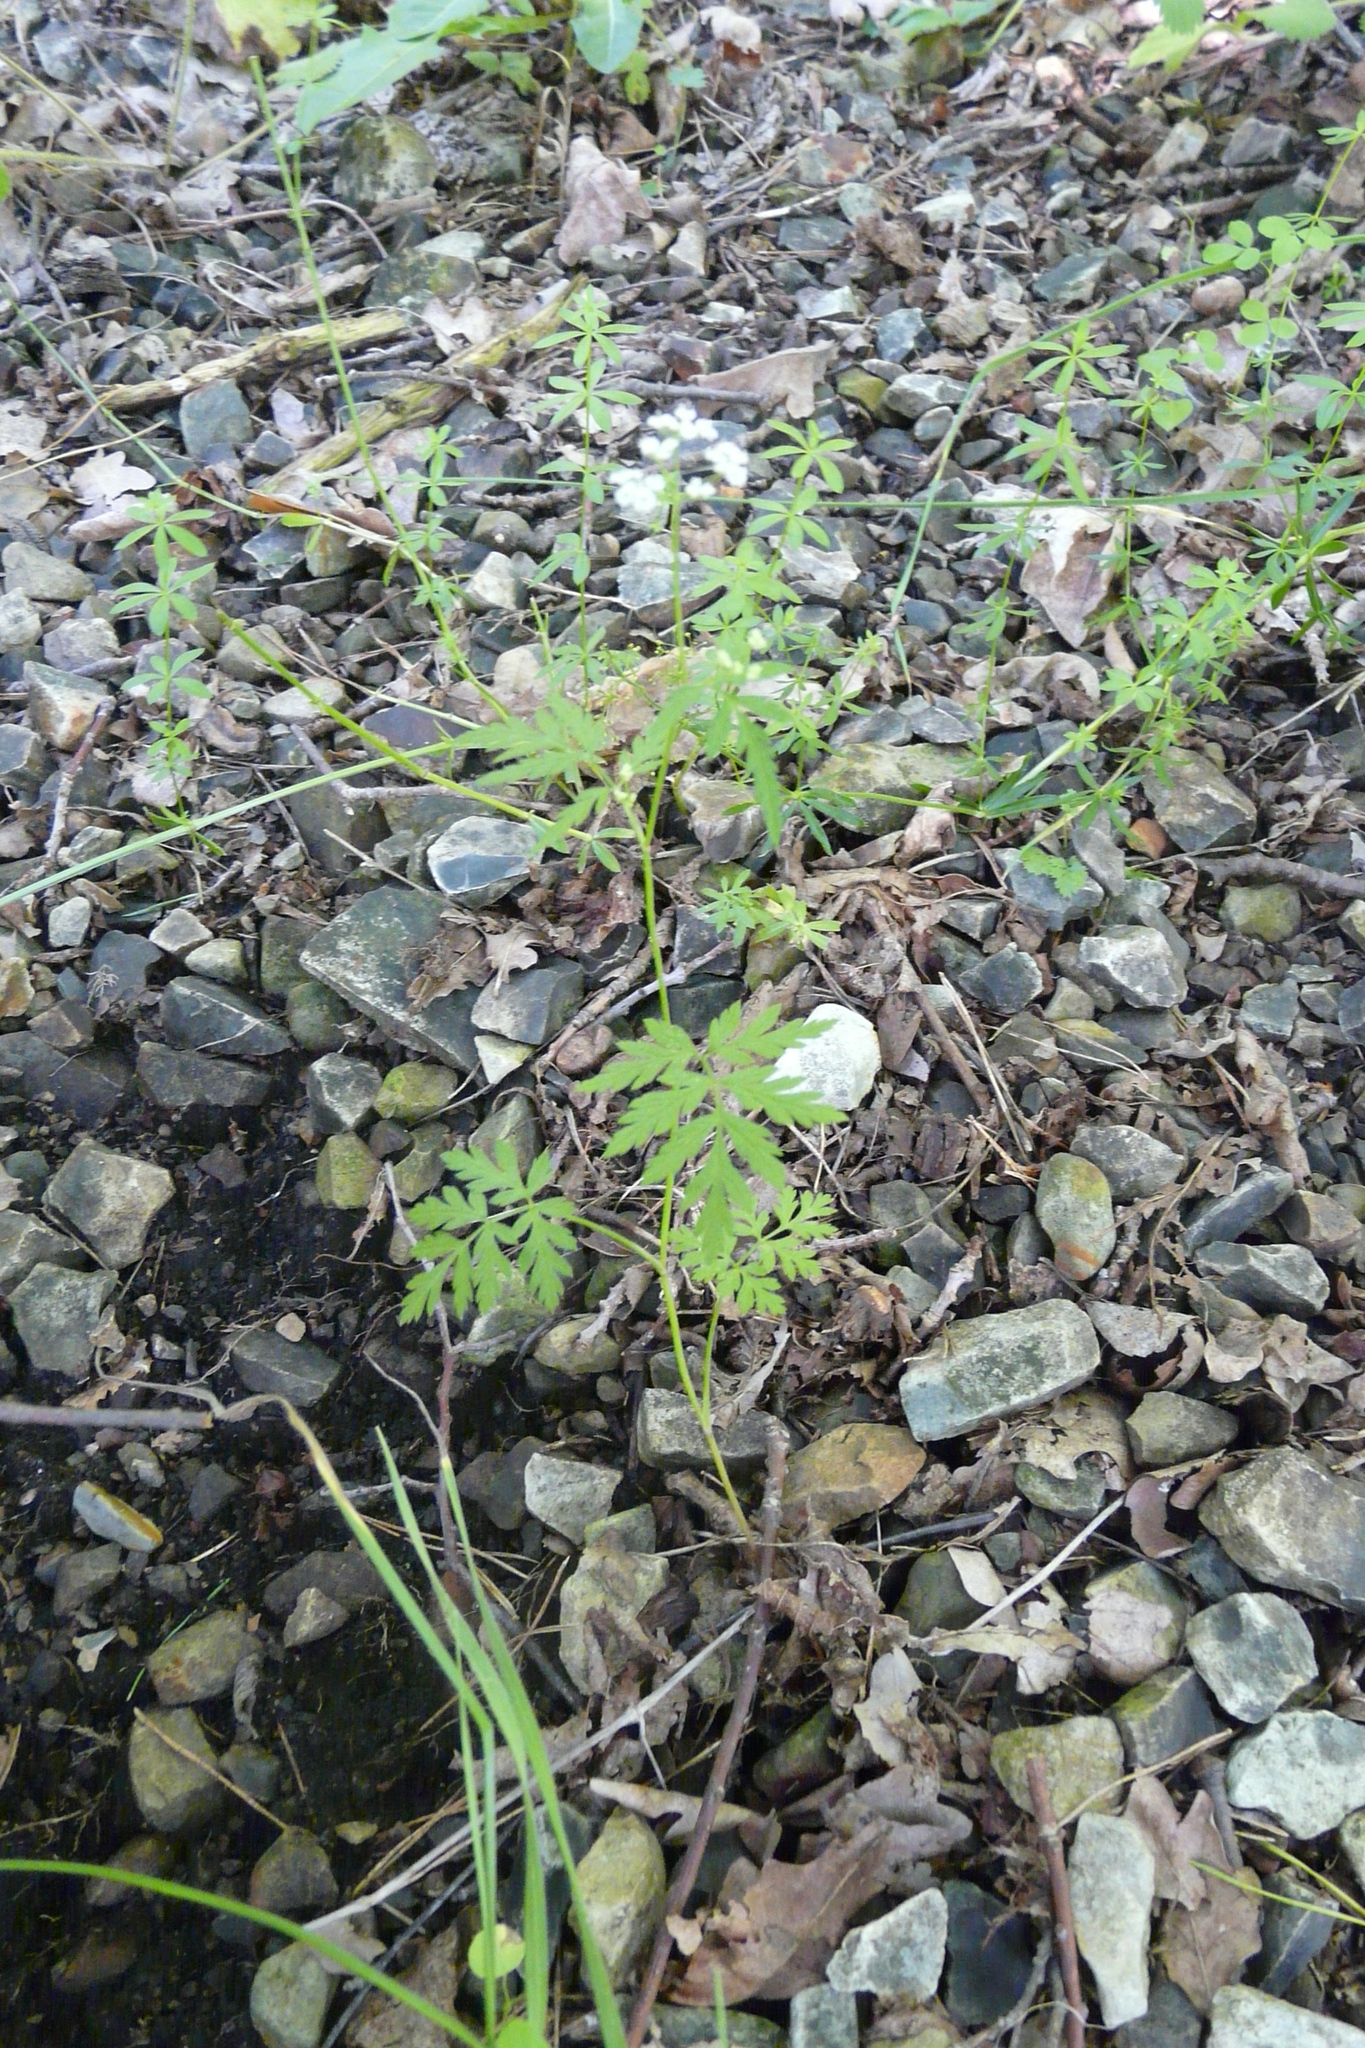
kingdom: Plantae
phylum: Tracheophyta
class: Magnoliopsida
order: Apiales
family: Apiaceae
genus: Torilis
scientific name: Torilis japonica
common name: Upright hedge-parsley
